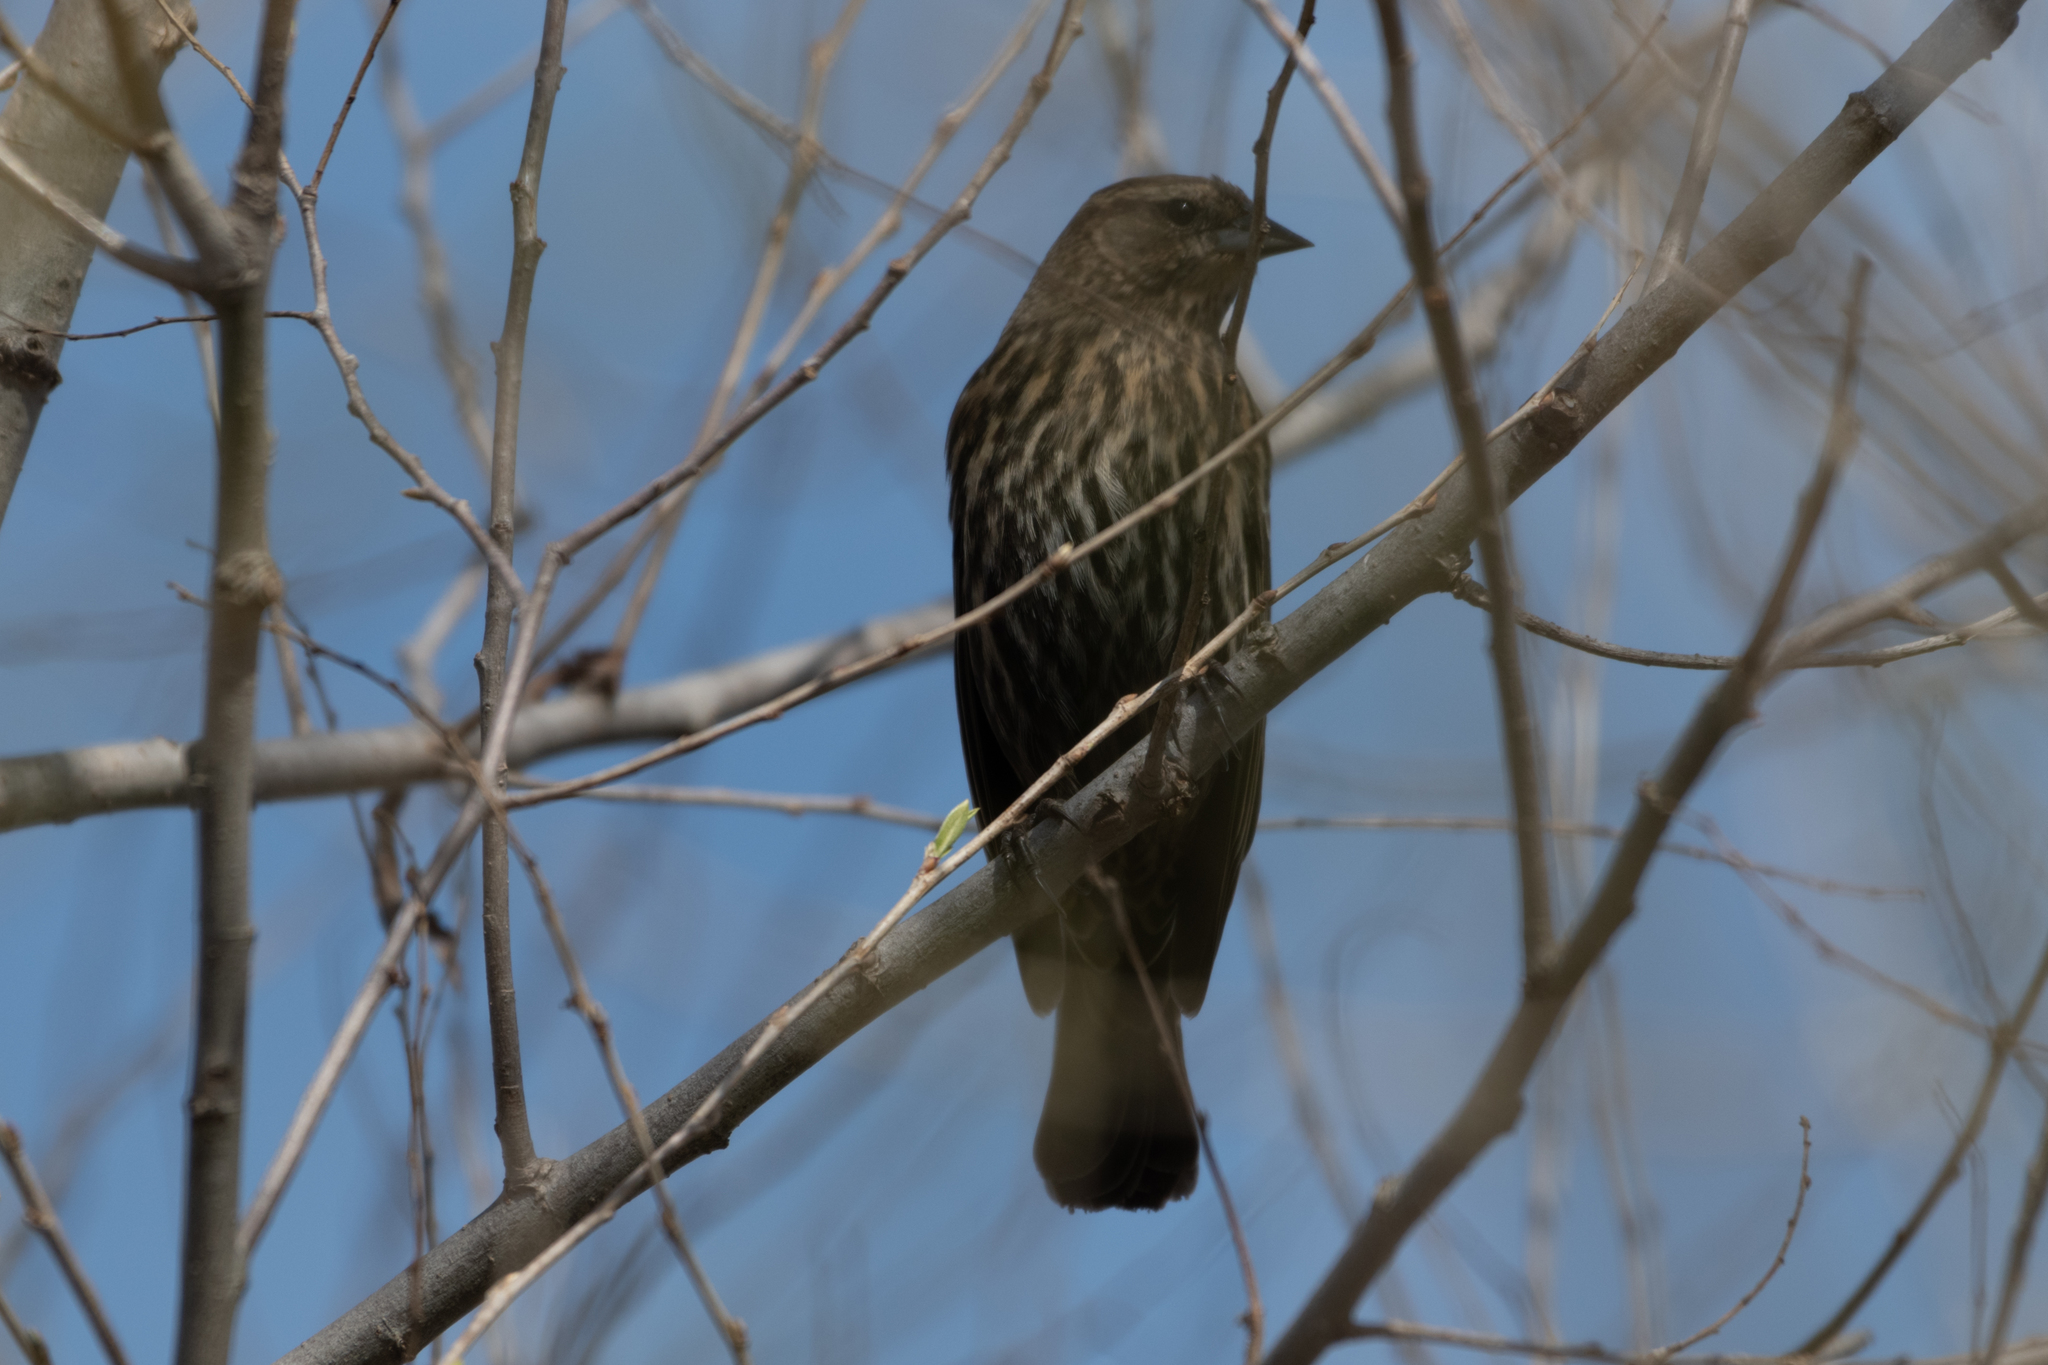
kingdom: Animalia
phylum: Chordata
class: Aves
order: Passeriformes
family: Icteridae
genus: Agelaius
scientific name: Agelaius phoeniceus
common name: Red-winged blackbird
